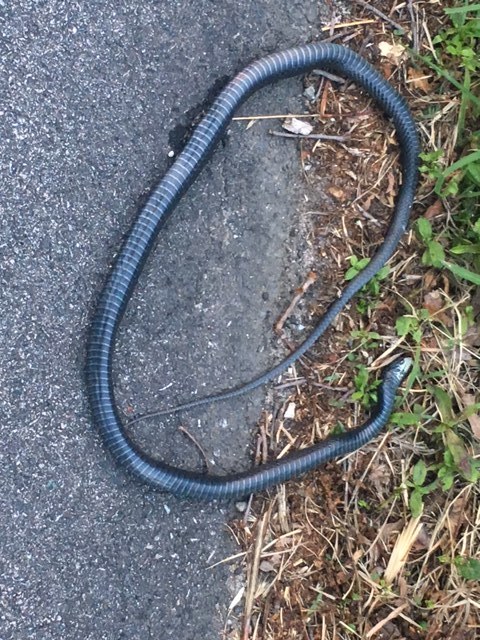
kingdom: Animalia
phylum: Chordata
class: Squamata
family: Colubridae
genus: Coluber
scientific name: Coluber constrictor
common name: Eastern racer
